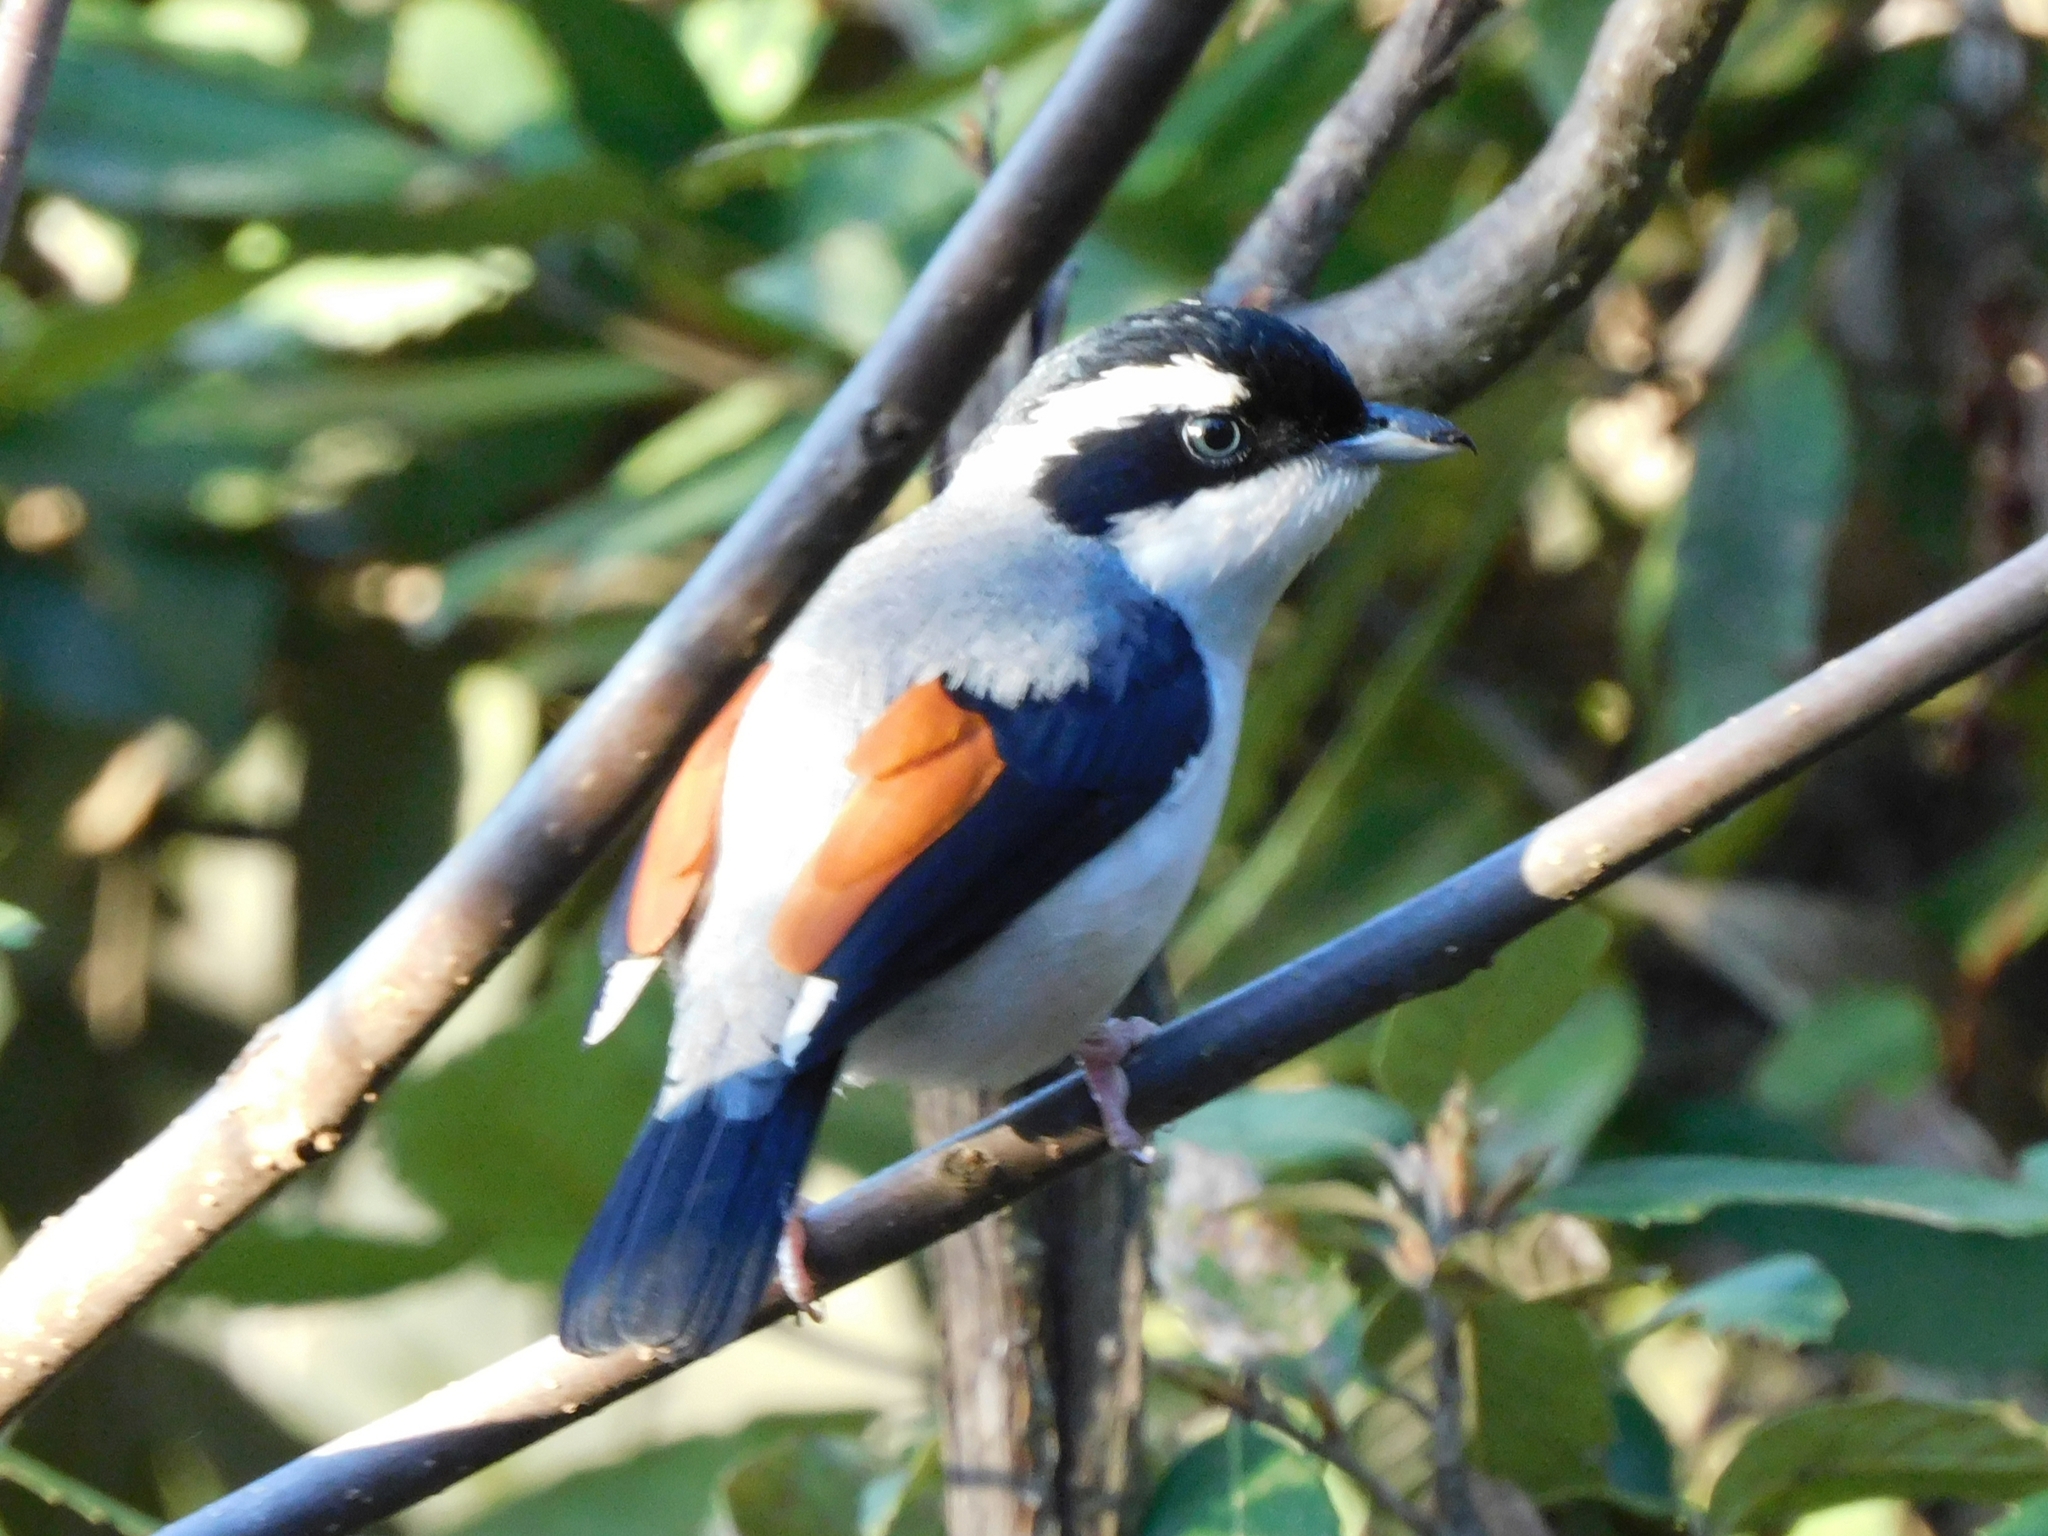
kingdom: Animalia
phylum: Chordata
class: Aves
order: Passeriformes
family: Vireonidae
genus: Pteruthius
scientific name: Pteruthius aeralatus
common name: Blyth's shrike-babbler
